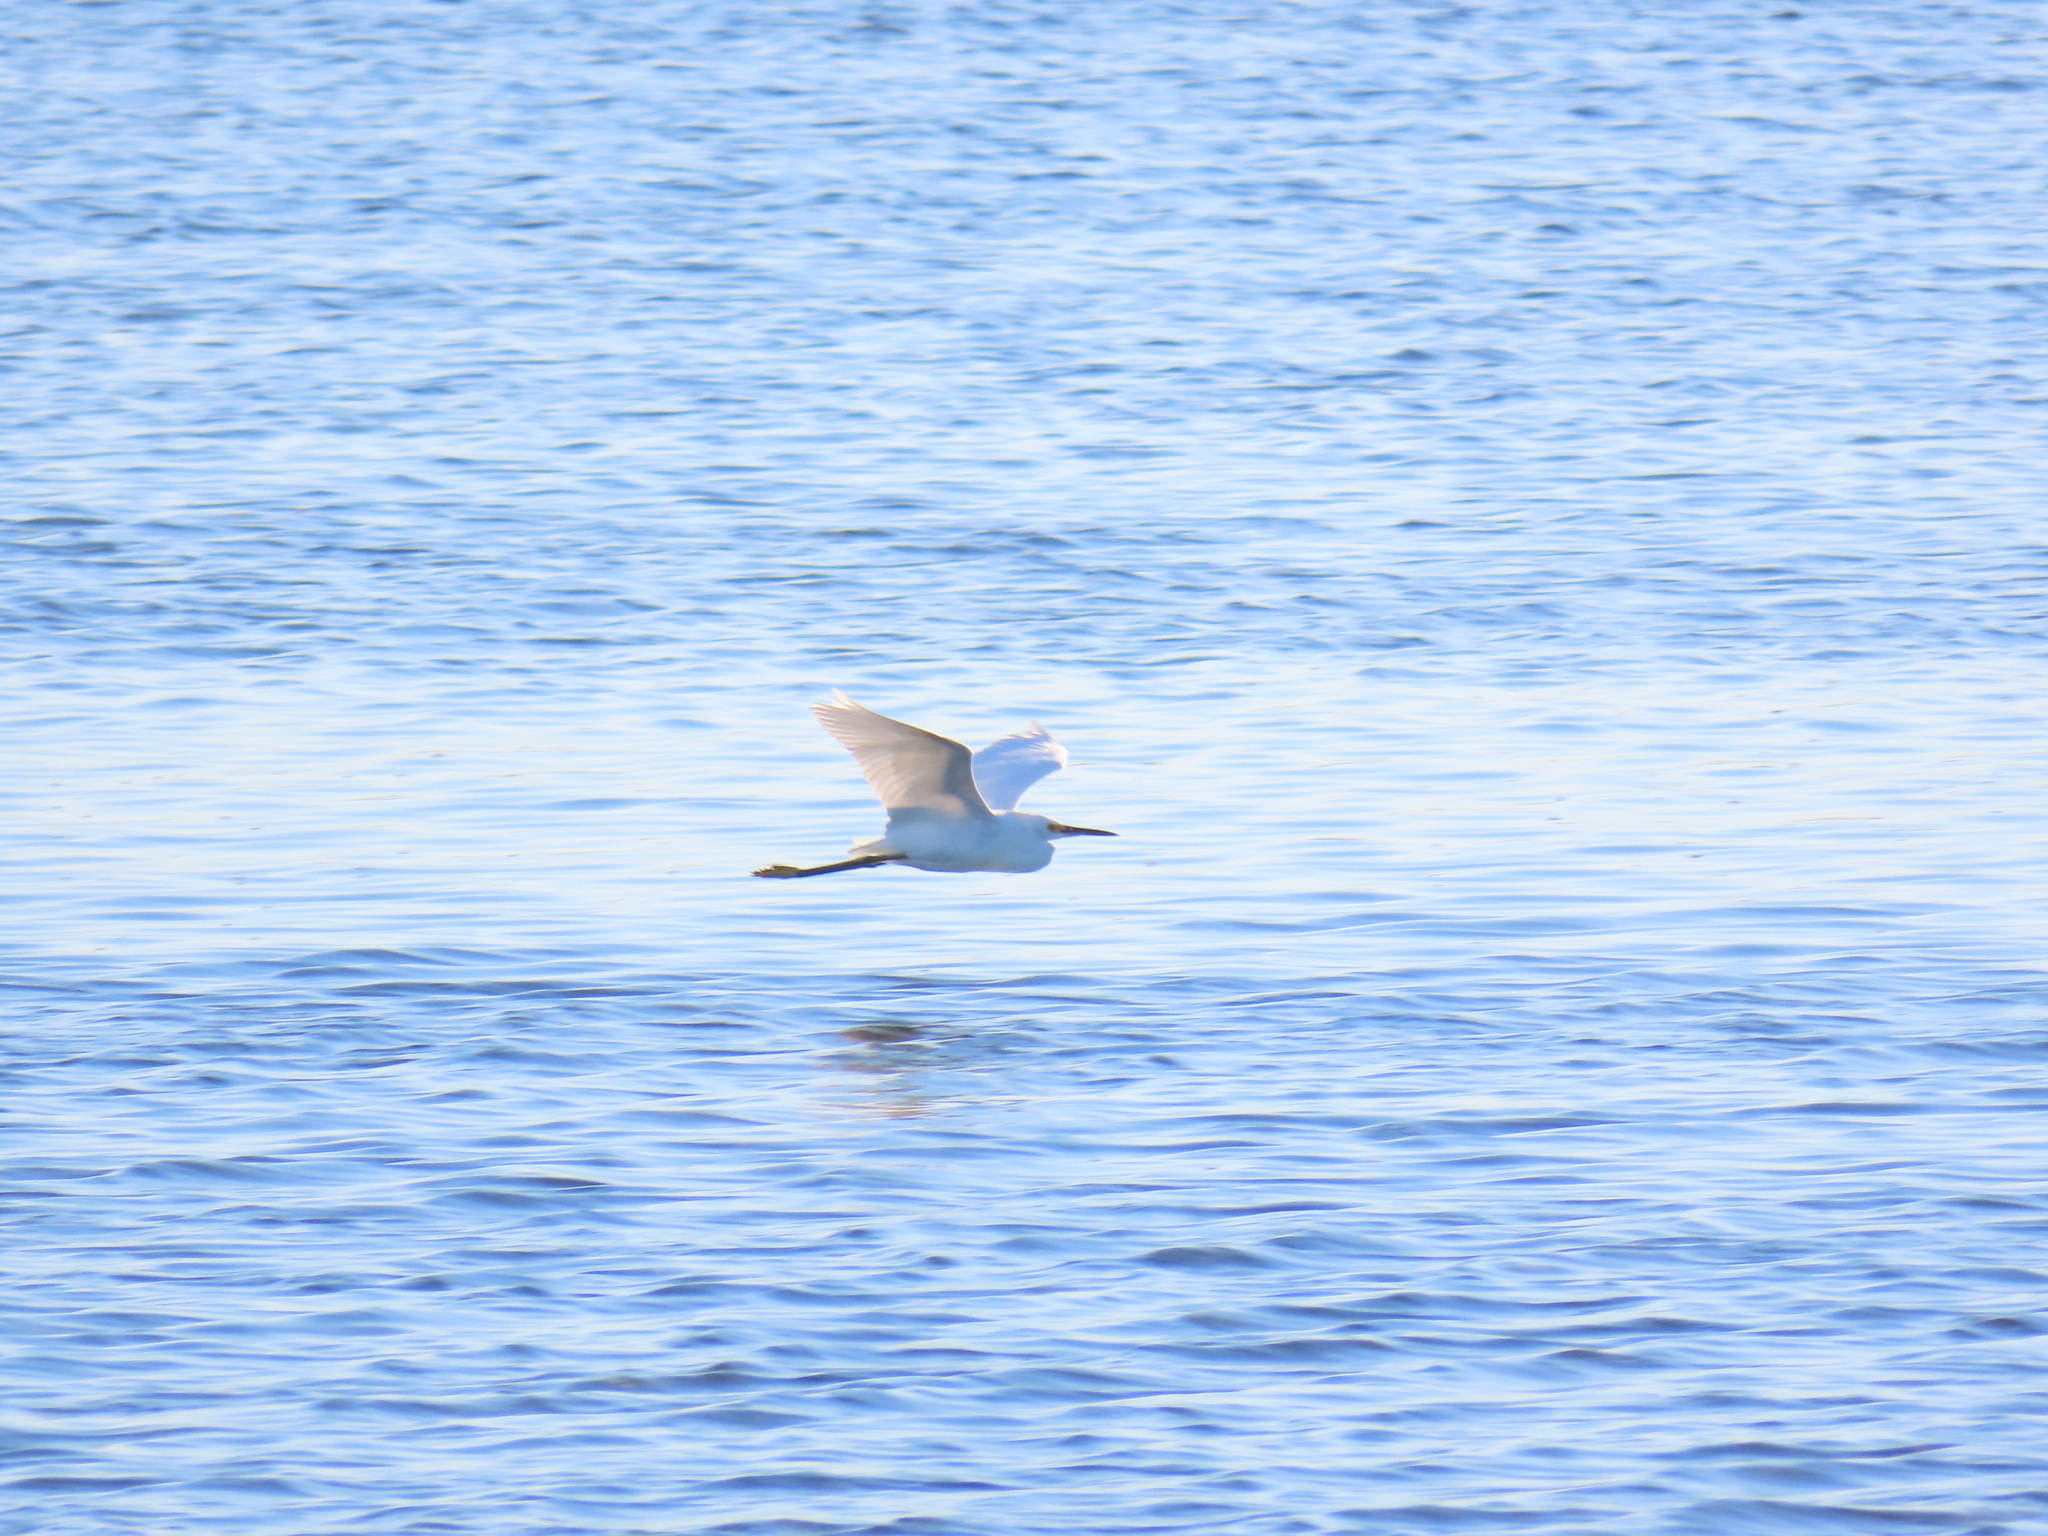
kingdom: Animalia
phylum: Chordata
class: Aves
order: Pelecaniformes
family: Ardeidae
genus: Egretta
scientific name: Egretta thula
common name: Snowy egret
